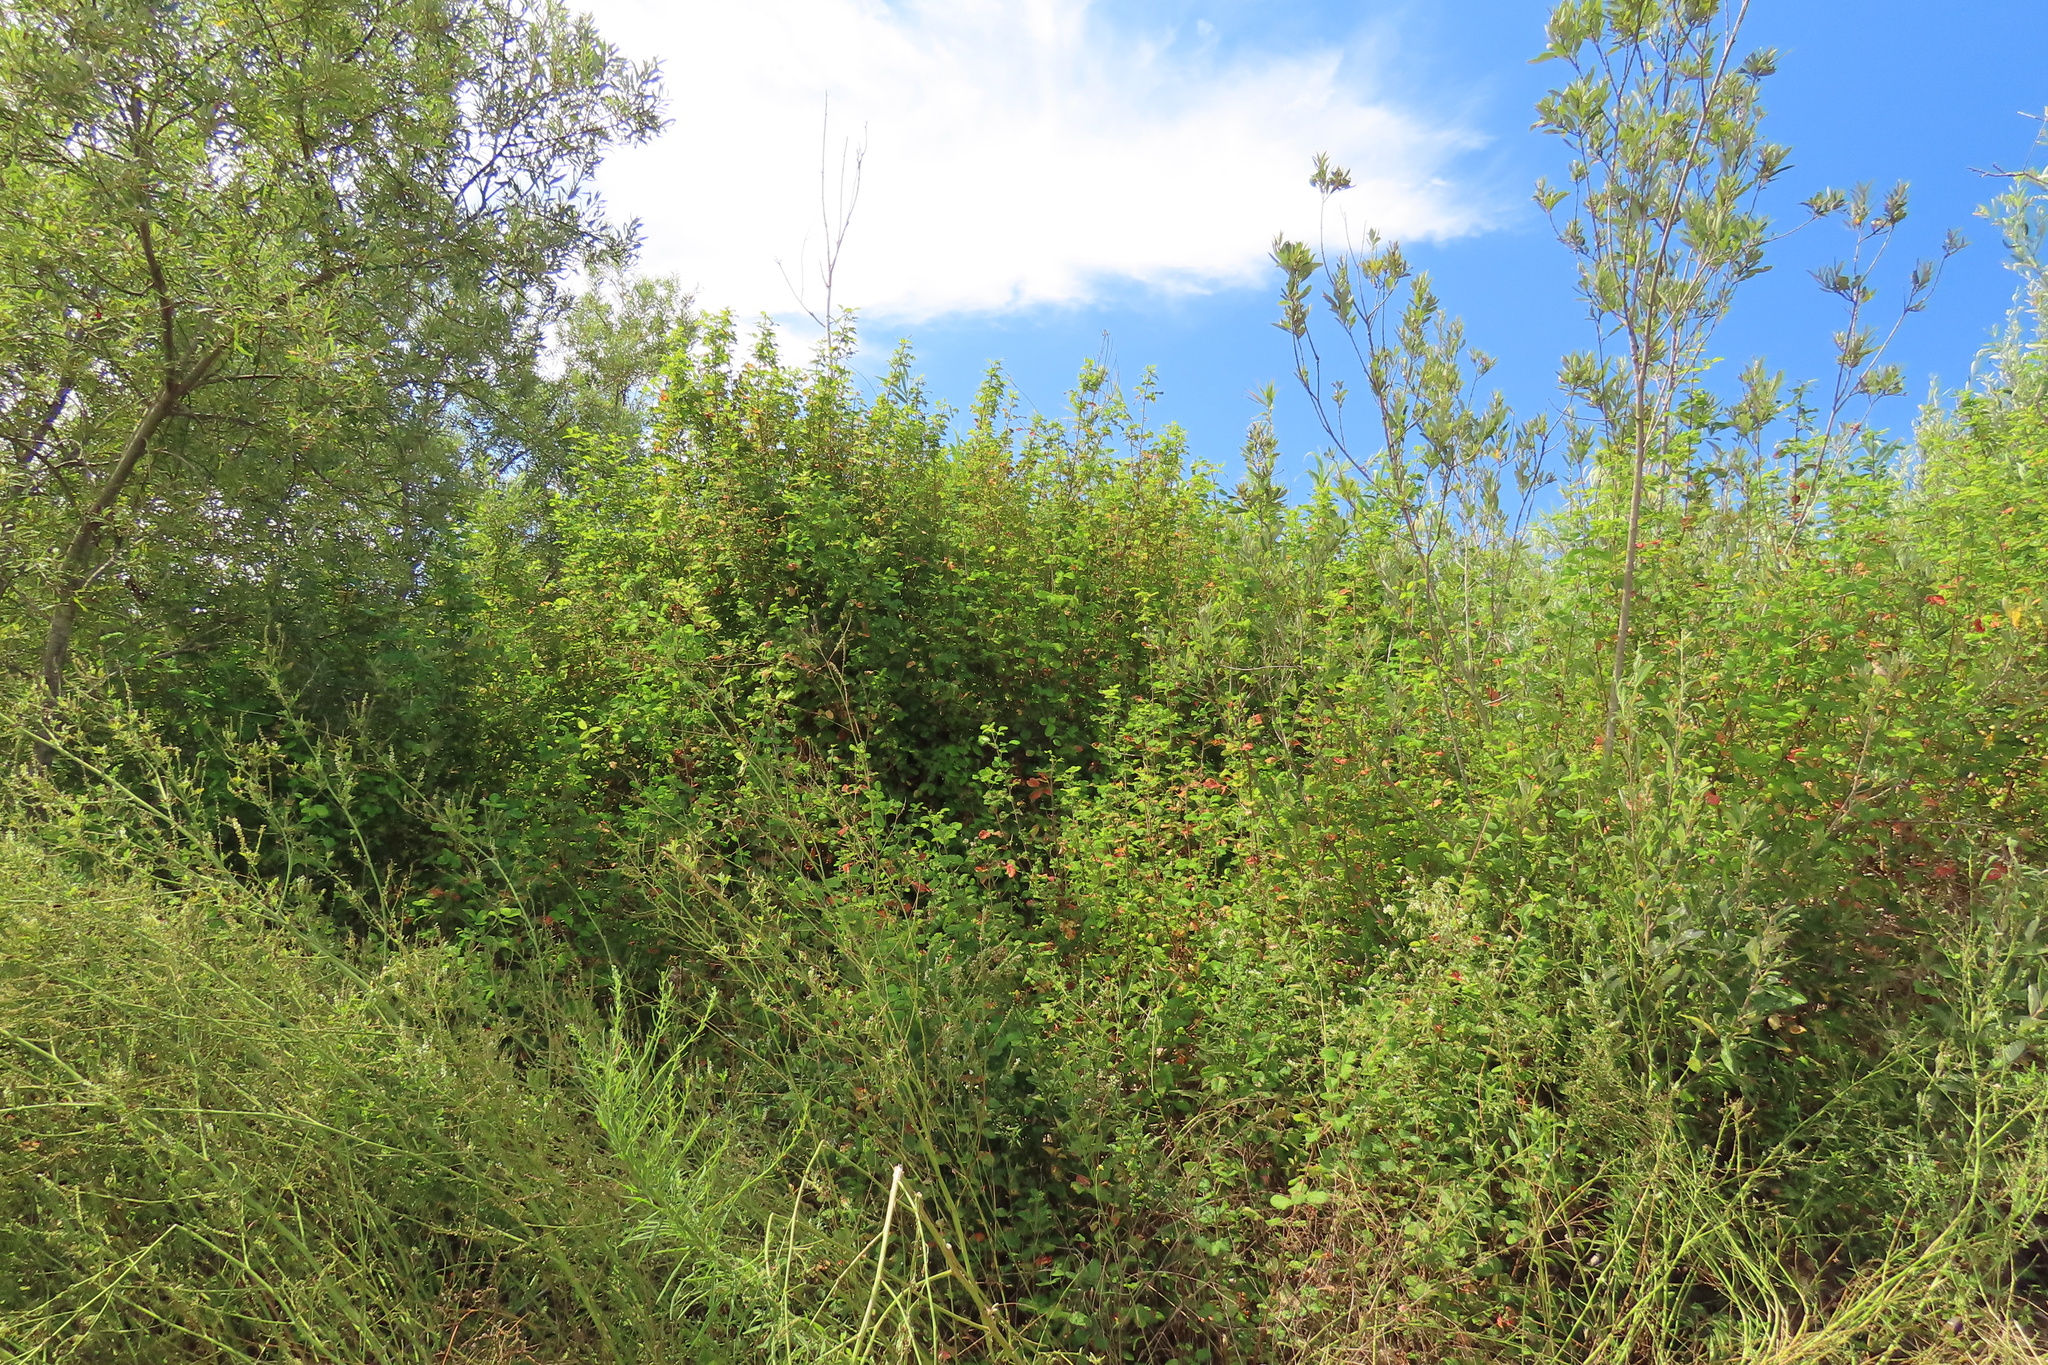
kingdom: Plantae
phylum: Tracheophyta
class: Magnoliopsida
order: Sapindales
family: Anacardiaceae
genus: Toxicodendron
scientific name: Toxicodendron diversilobum
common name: Pacific poison-oak
